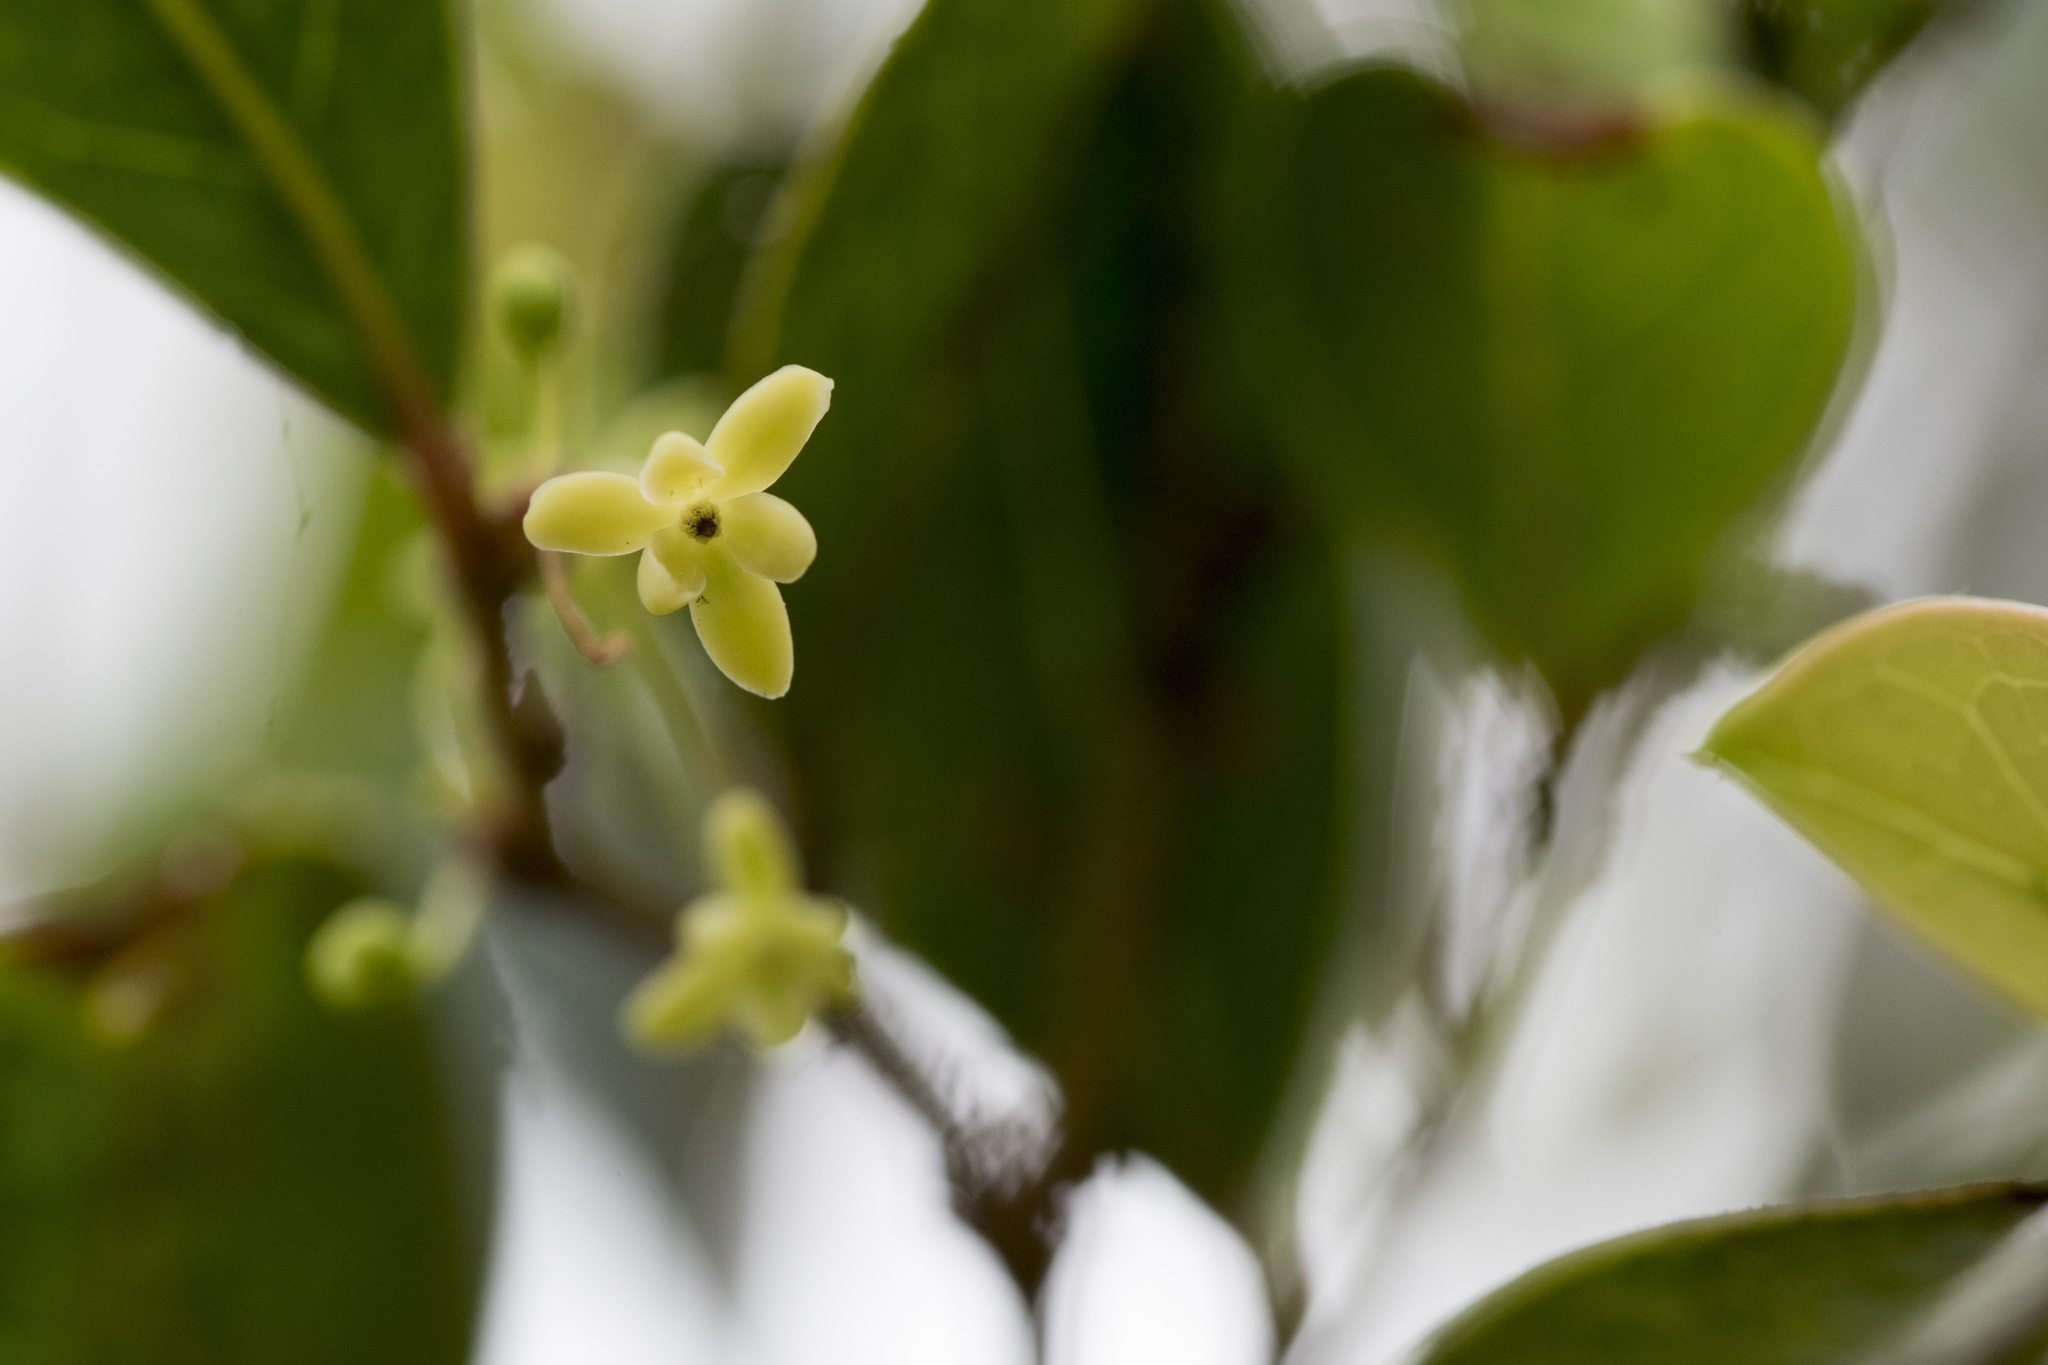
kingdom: Plantae
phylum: Tracheophyta
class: Magnoliopsida
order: Malpighiales
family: Phyllanthaceae
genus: Glochidion
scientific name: Glochidion rubrum
